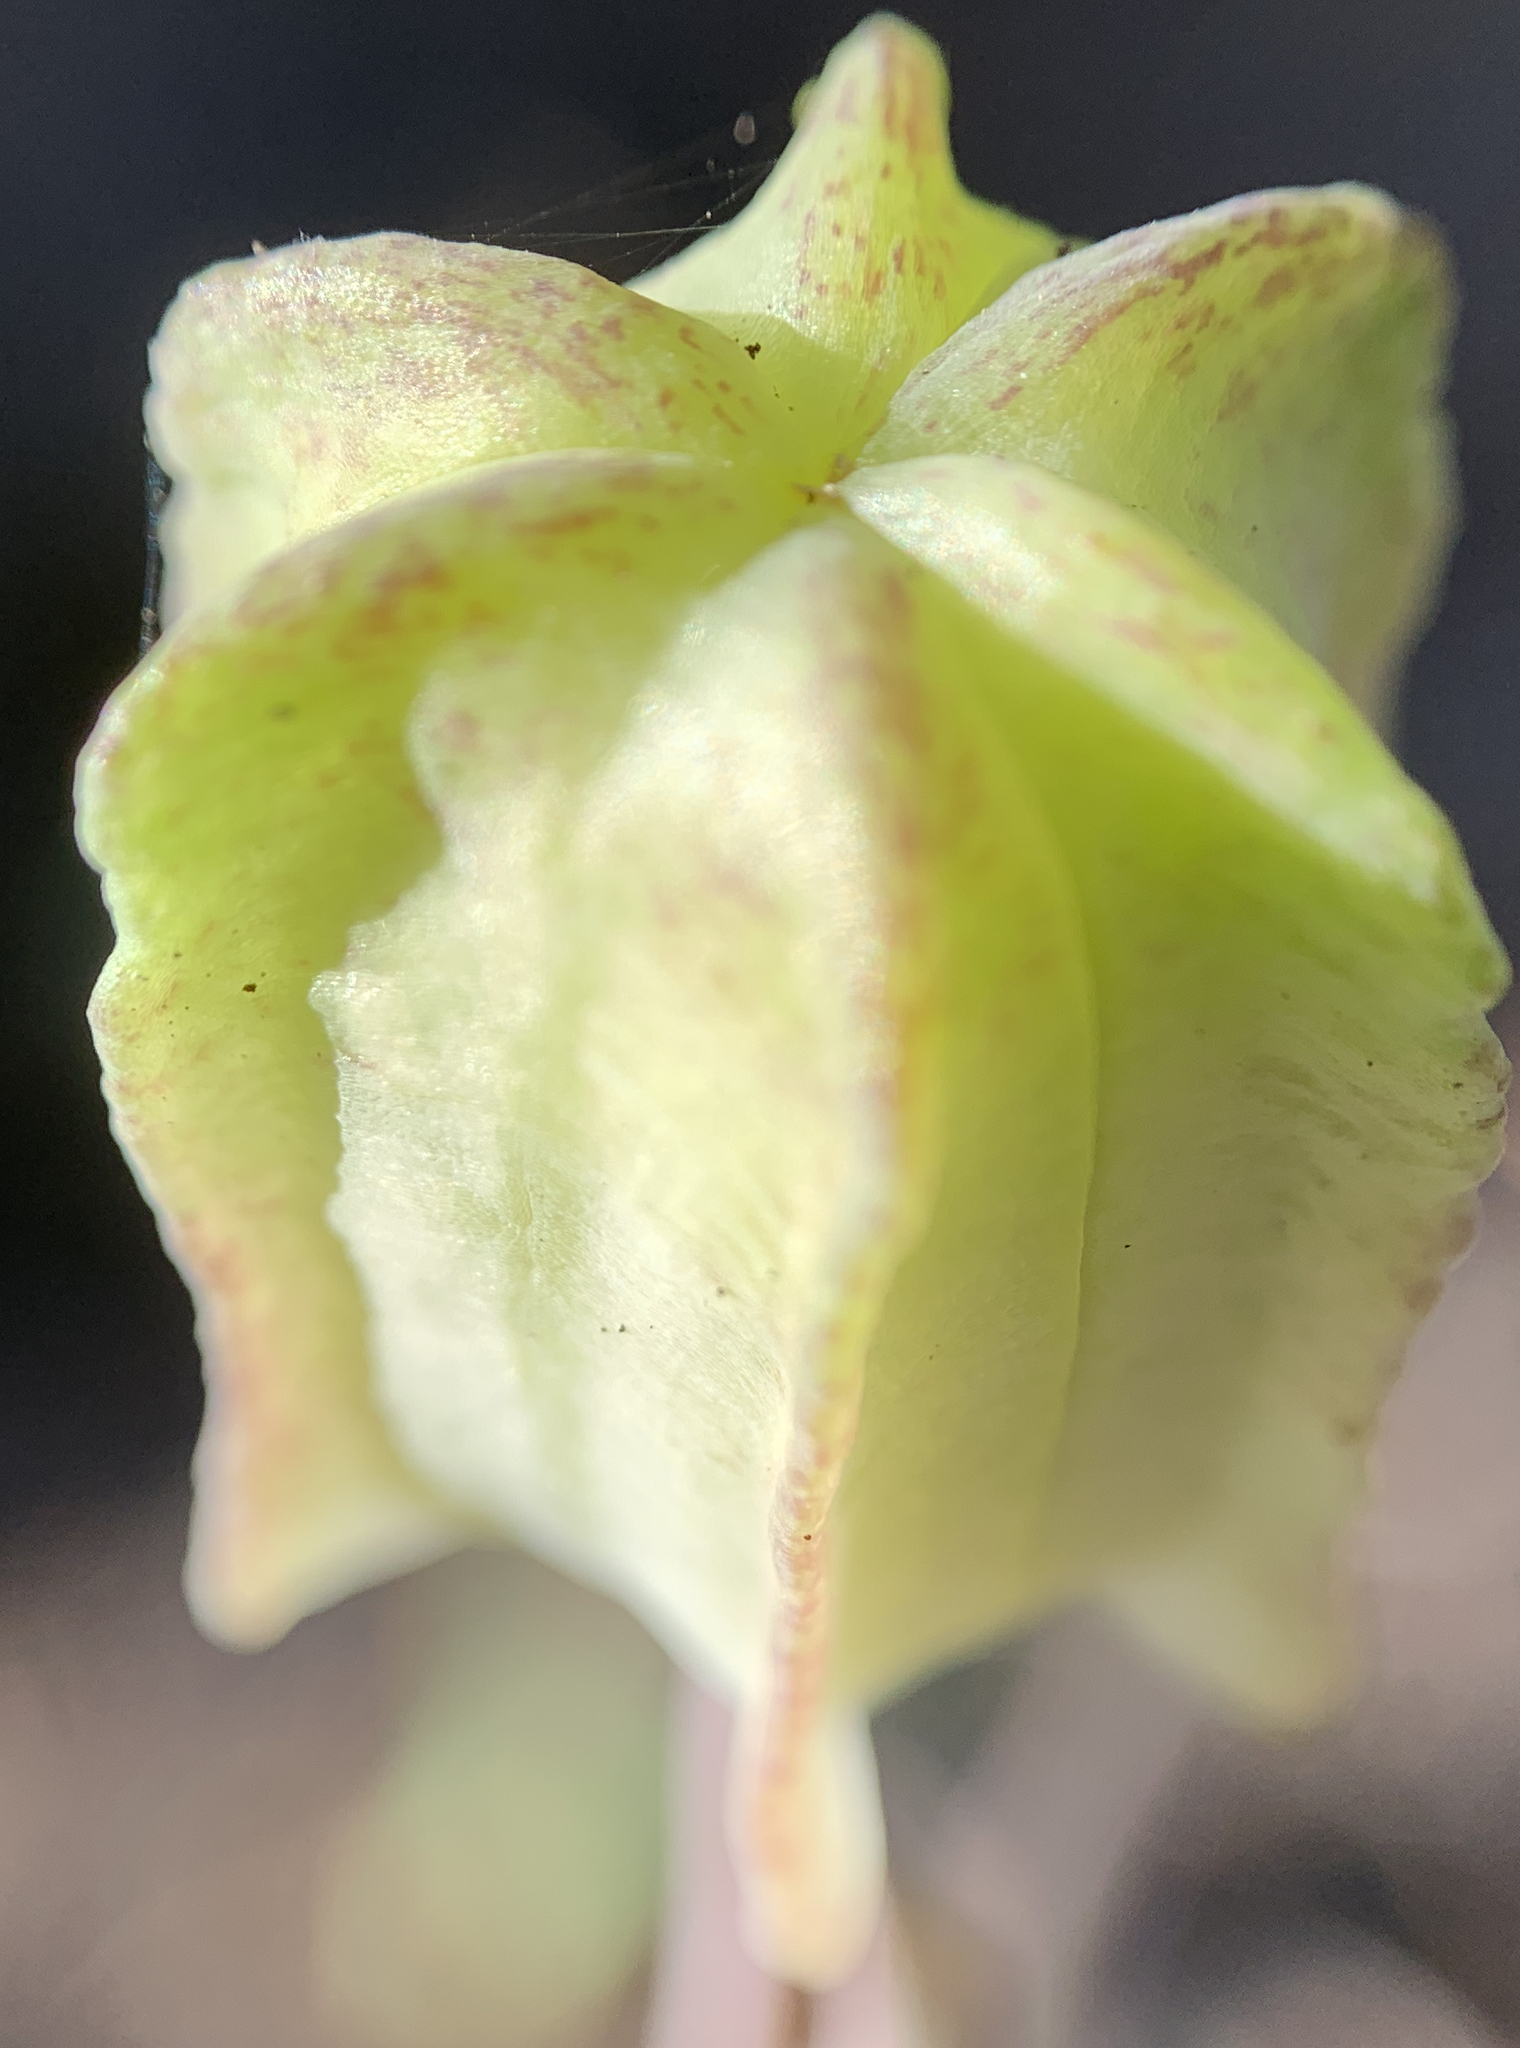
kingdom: Plantae
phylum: Tracheophyta
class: Liliopsida
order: Liliales
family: Liliaceae
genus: Fritillaria
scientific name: Fritillaria atropurpurea
